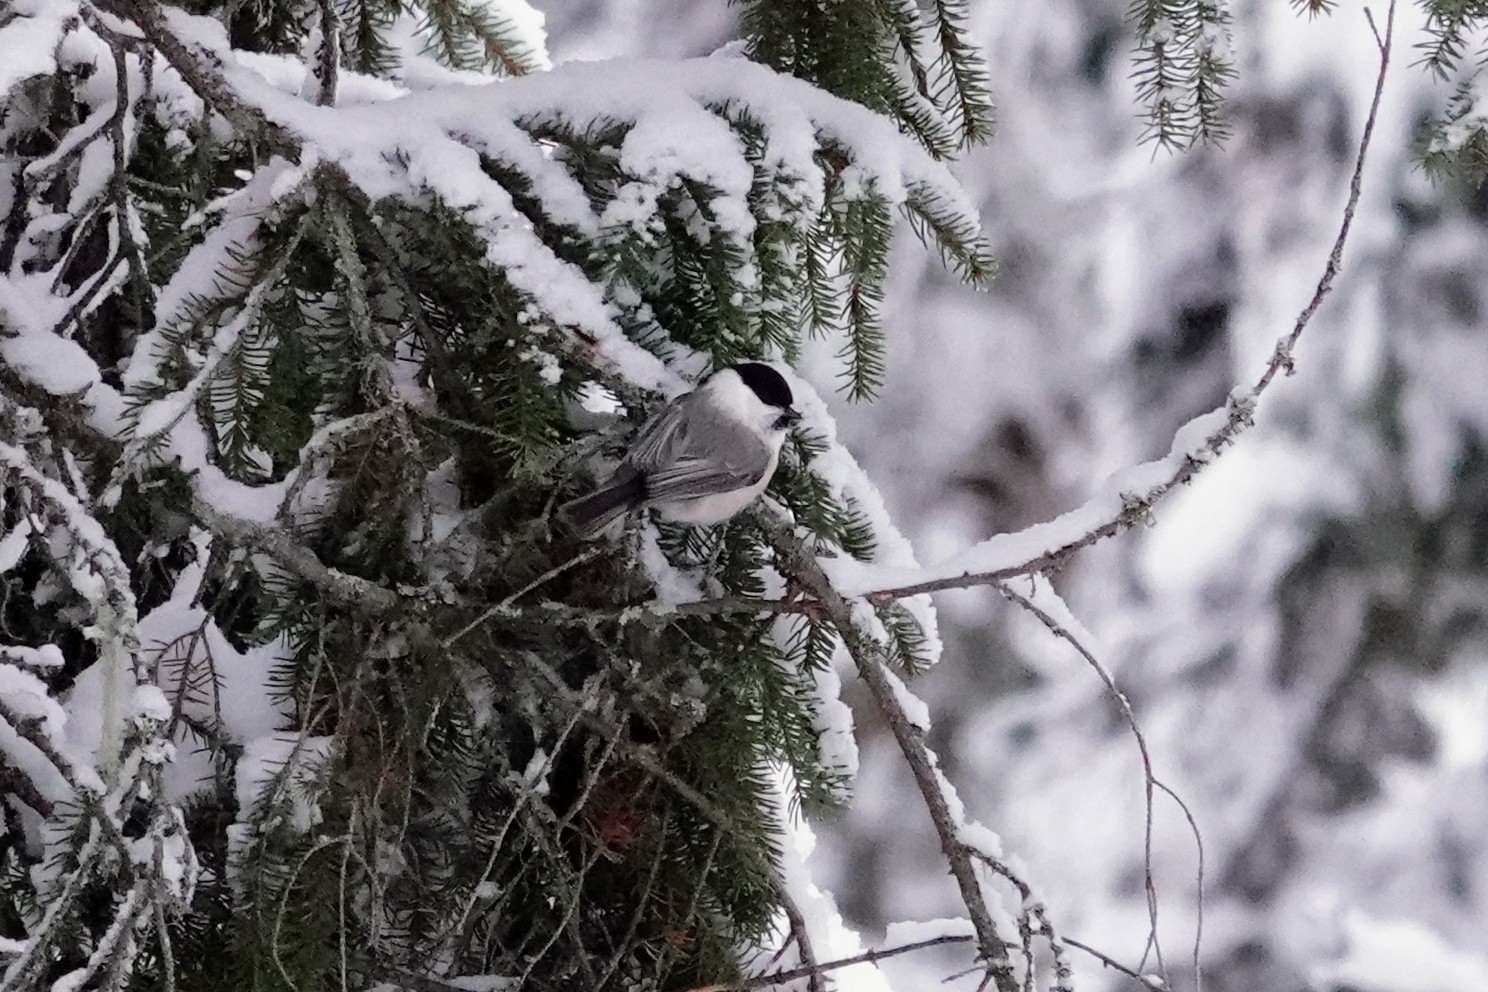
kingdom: Animalia
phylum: Chordata
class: Aves
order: Passeriformes
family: Paridae
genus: Poecile
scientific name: Poecile montanus
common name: Willow tit
